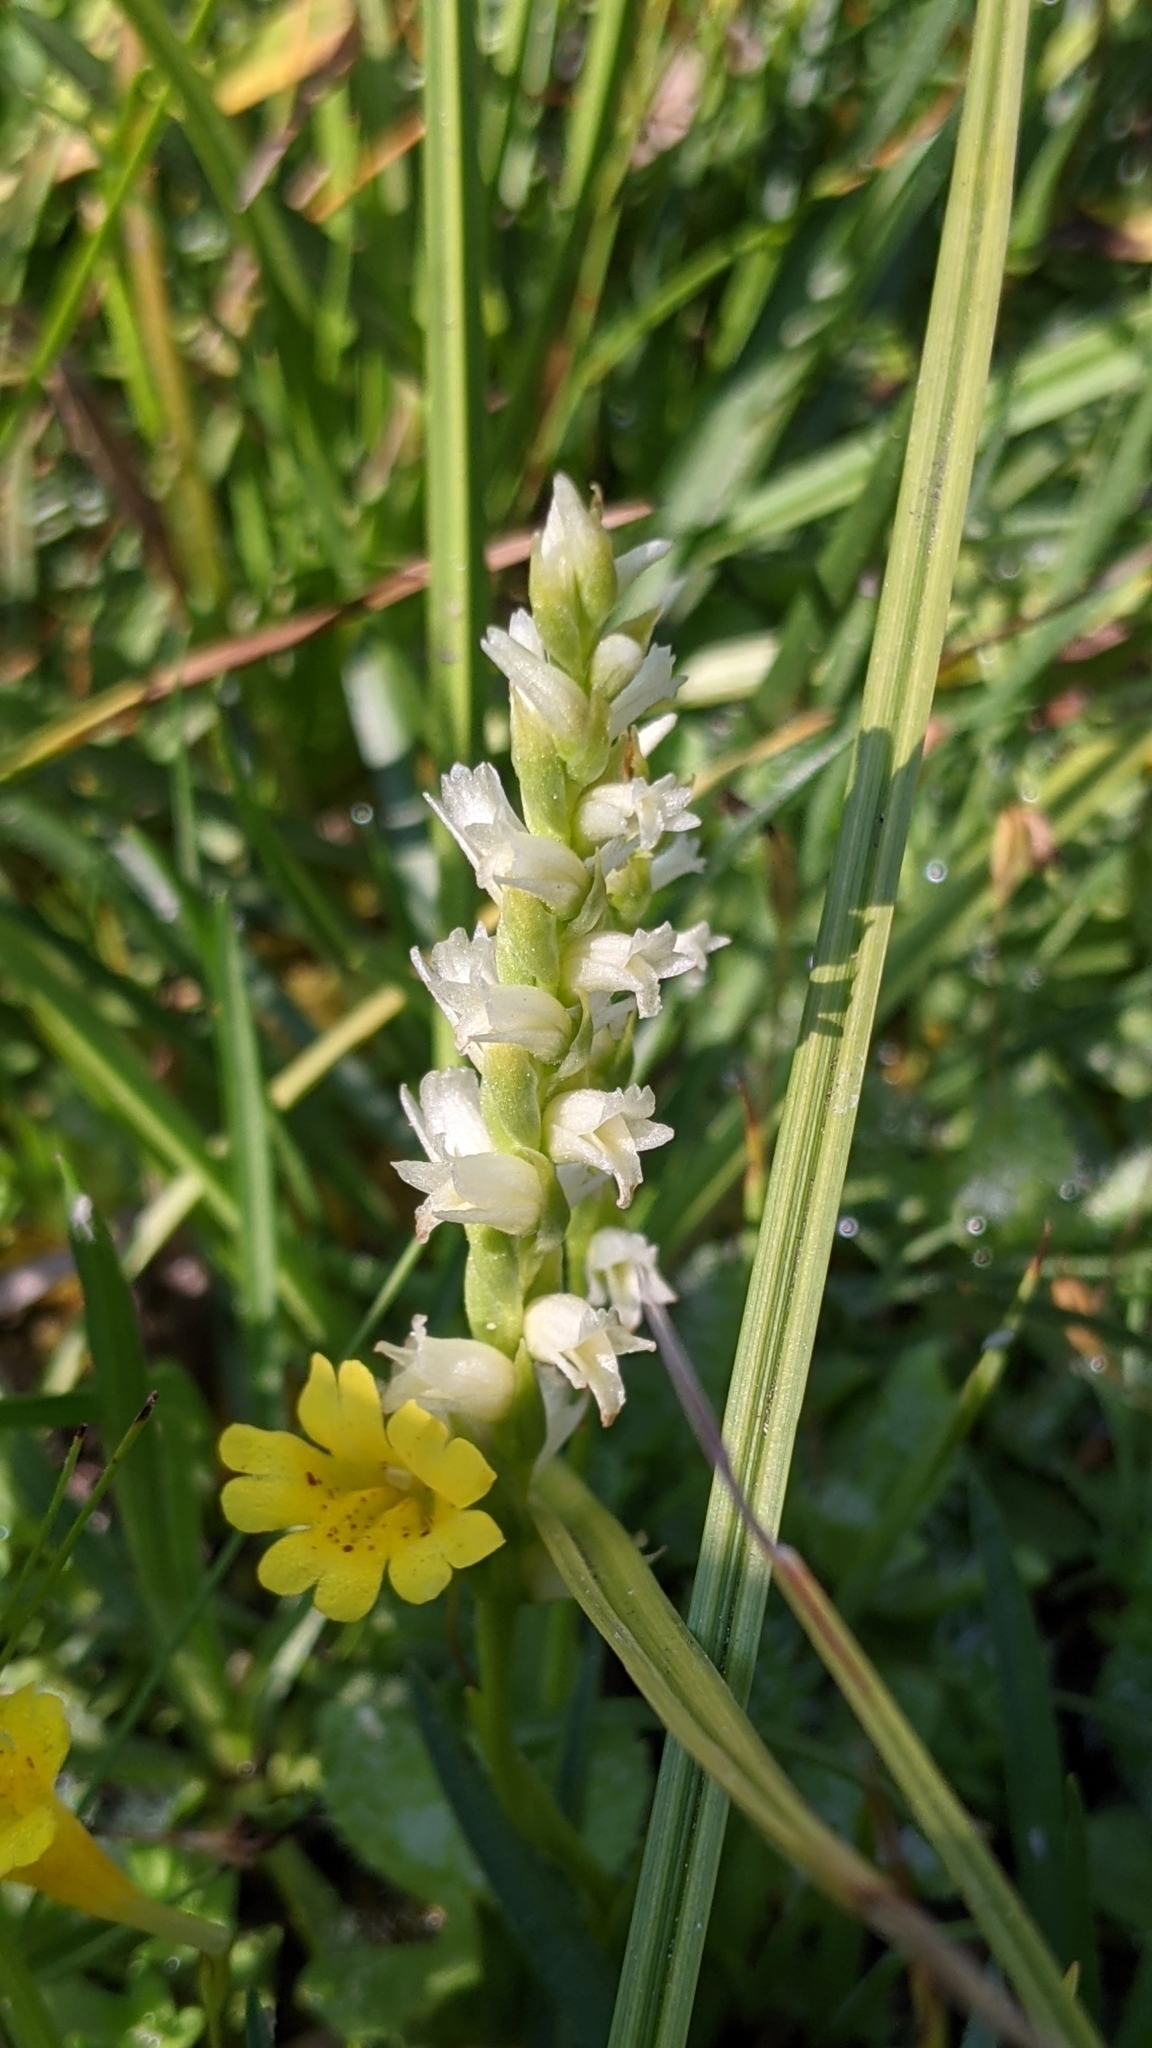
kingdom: Plantae
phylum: Tracheophyta
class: Liliopsida
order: Asparagales
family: Orchidaceae
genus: Spiranthes
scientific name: Spiranthes stellata
